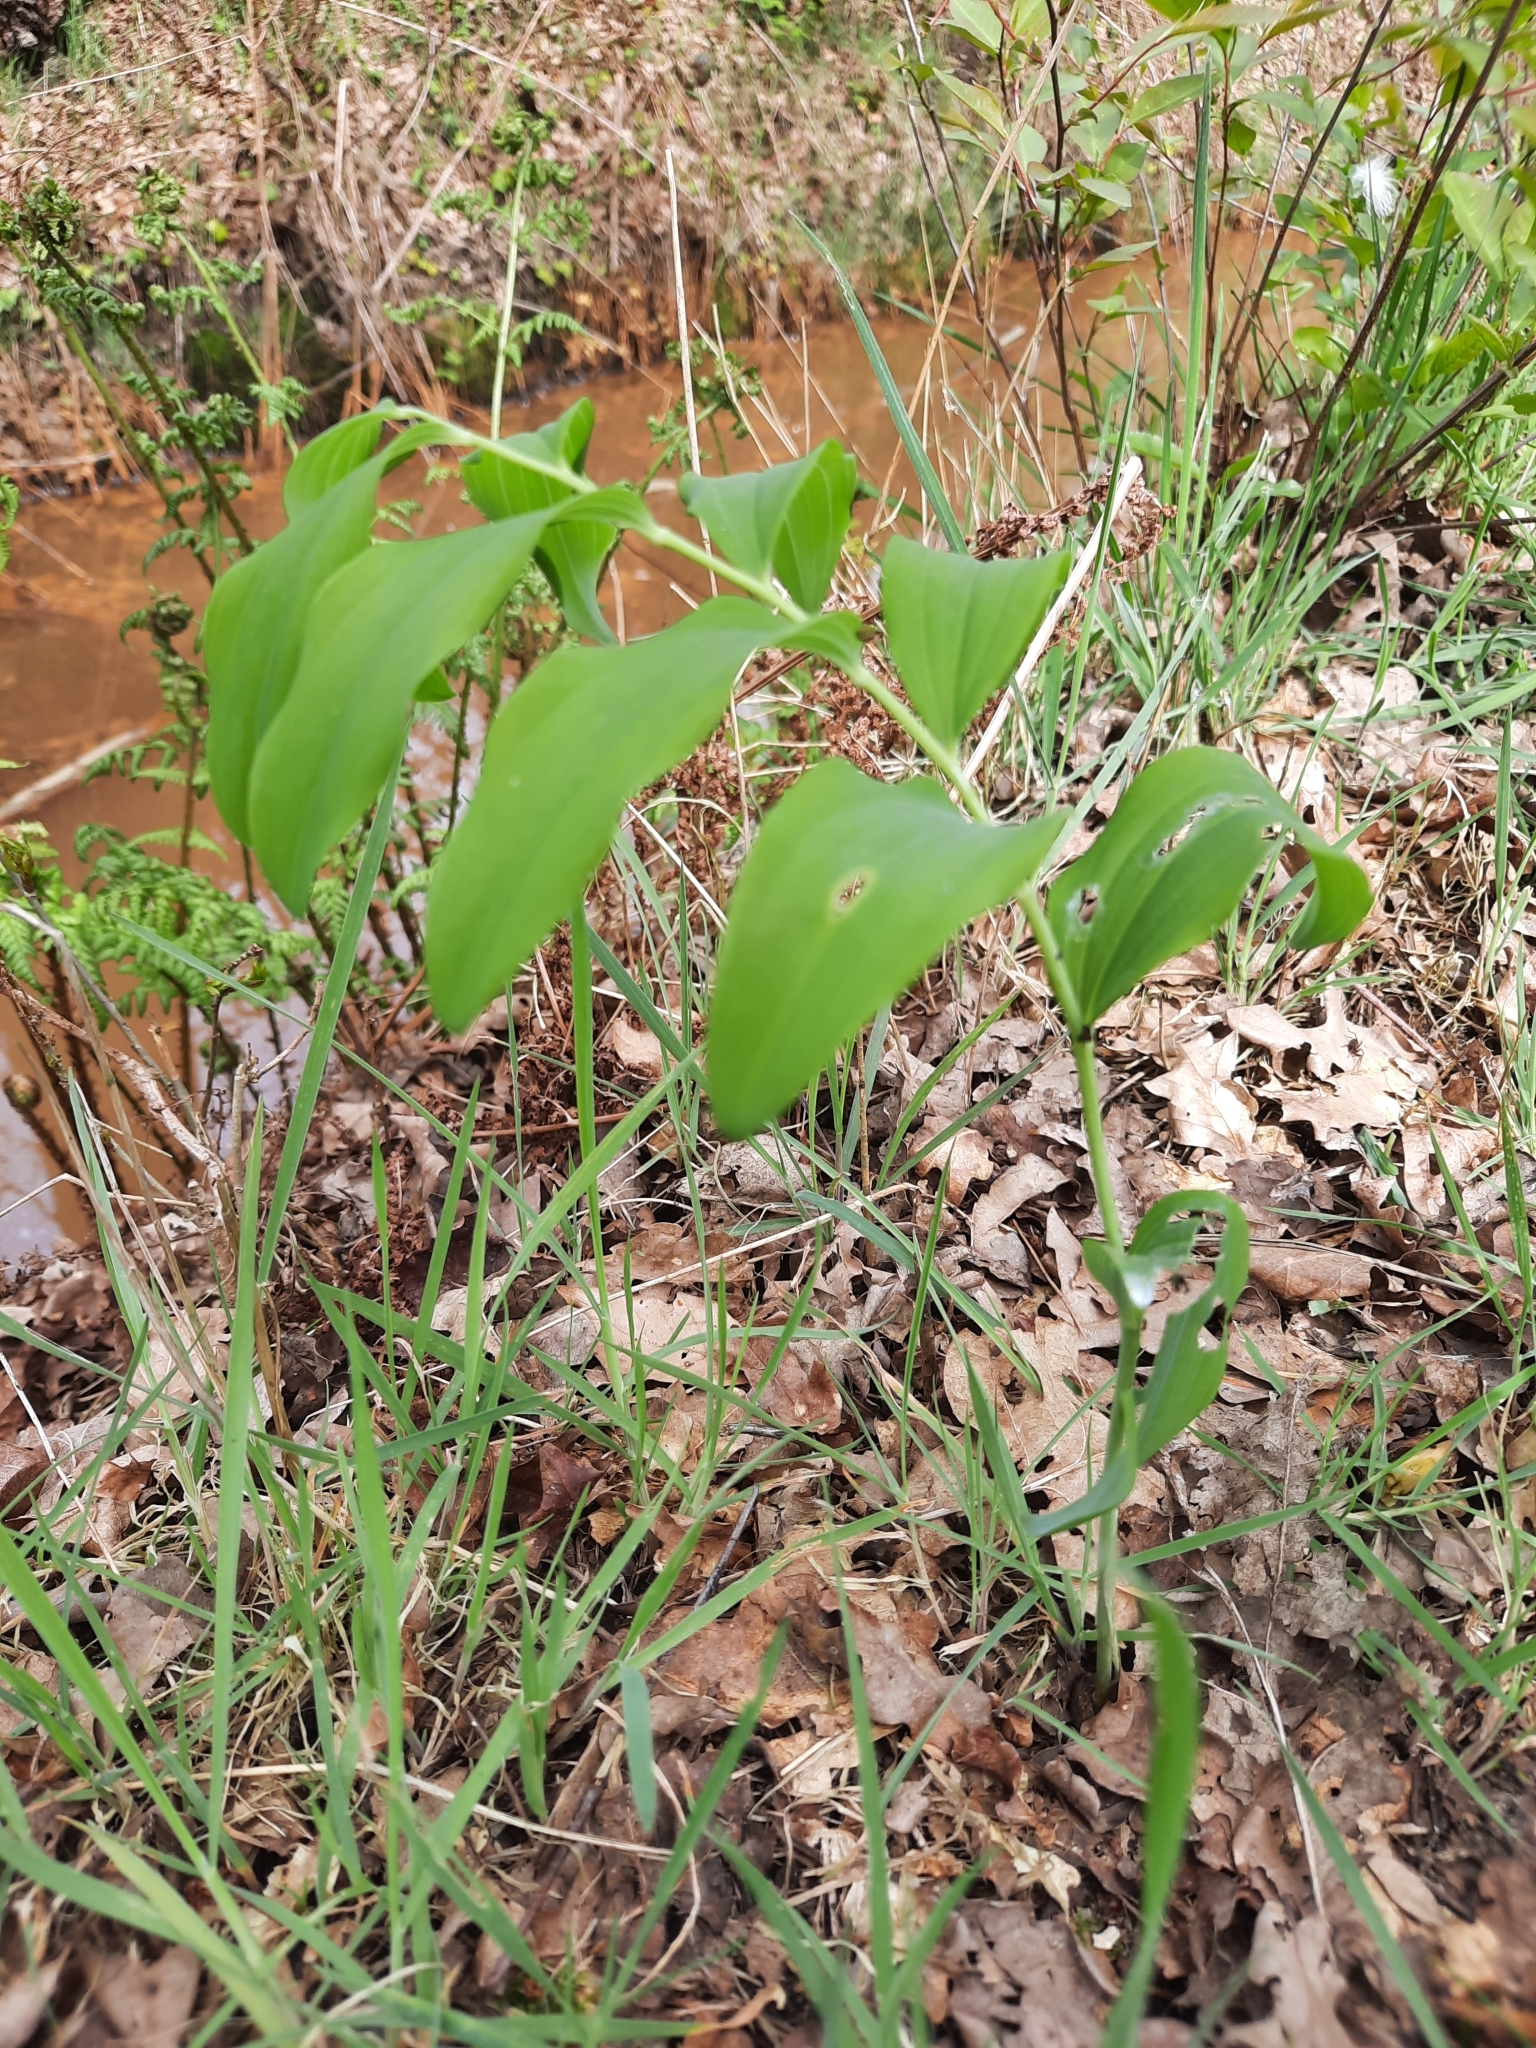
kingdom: Plantae
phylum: Tracheophyta
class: Liliopsida
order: Asparagales
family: Asparagaceae
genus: Polygonatum
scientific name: Polygonatum multiflorum
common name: Solomon's-seal
